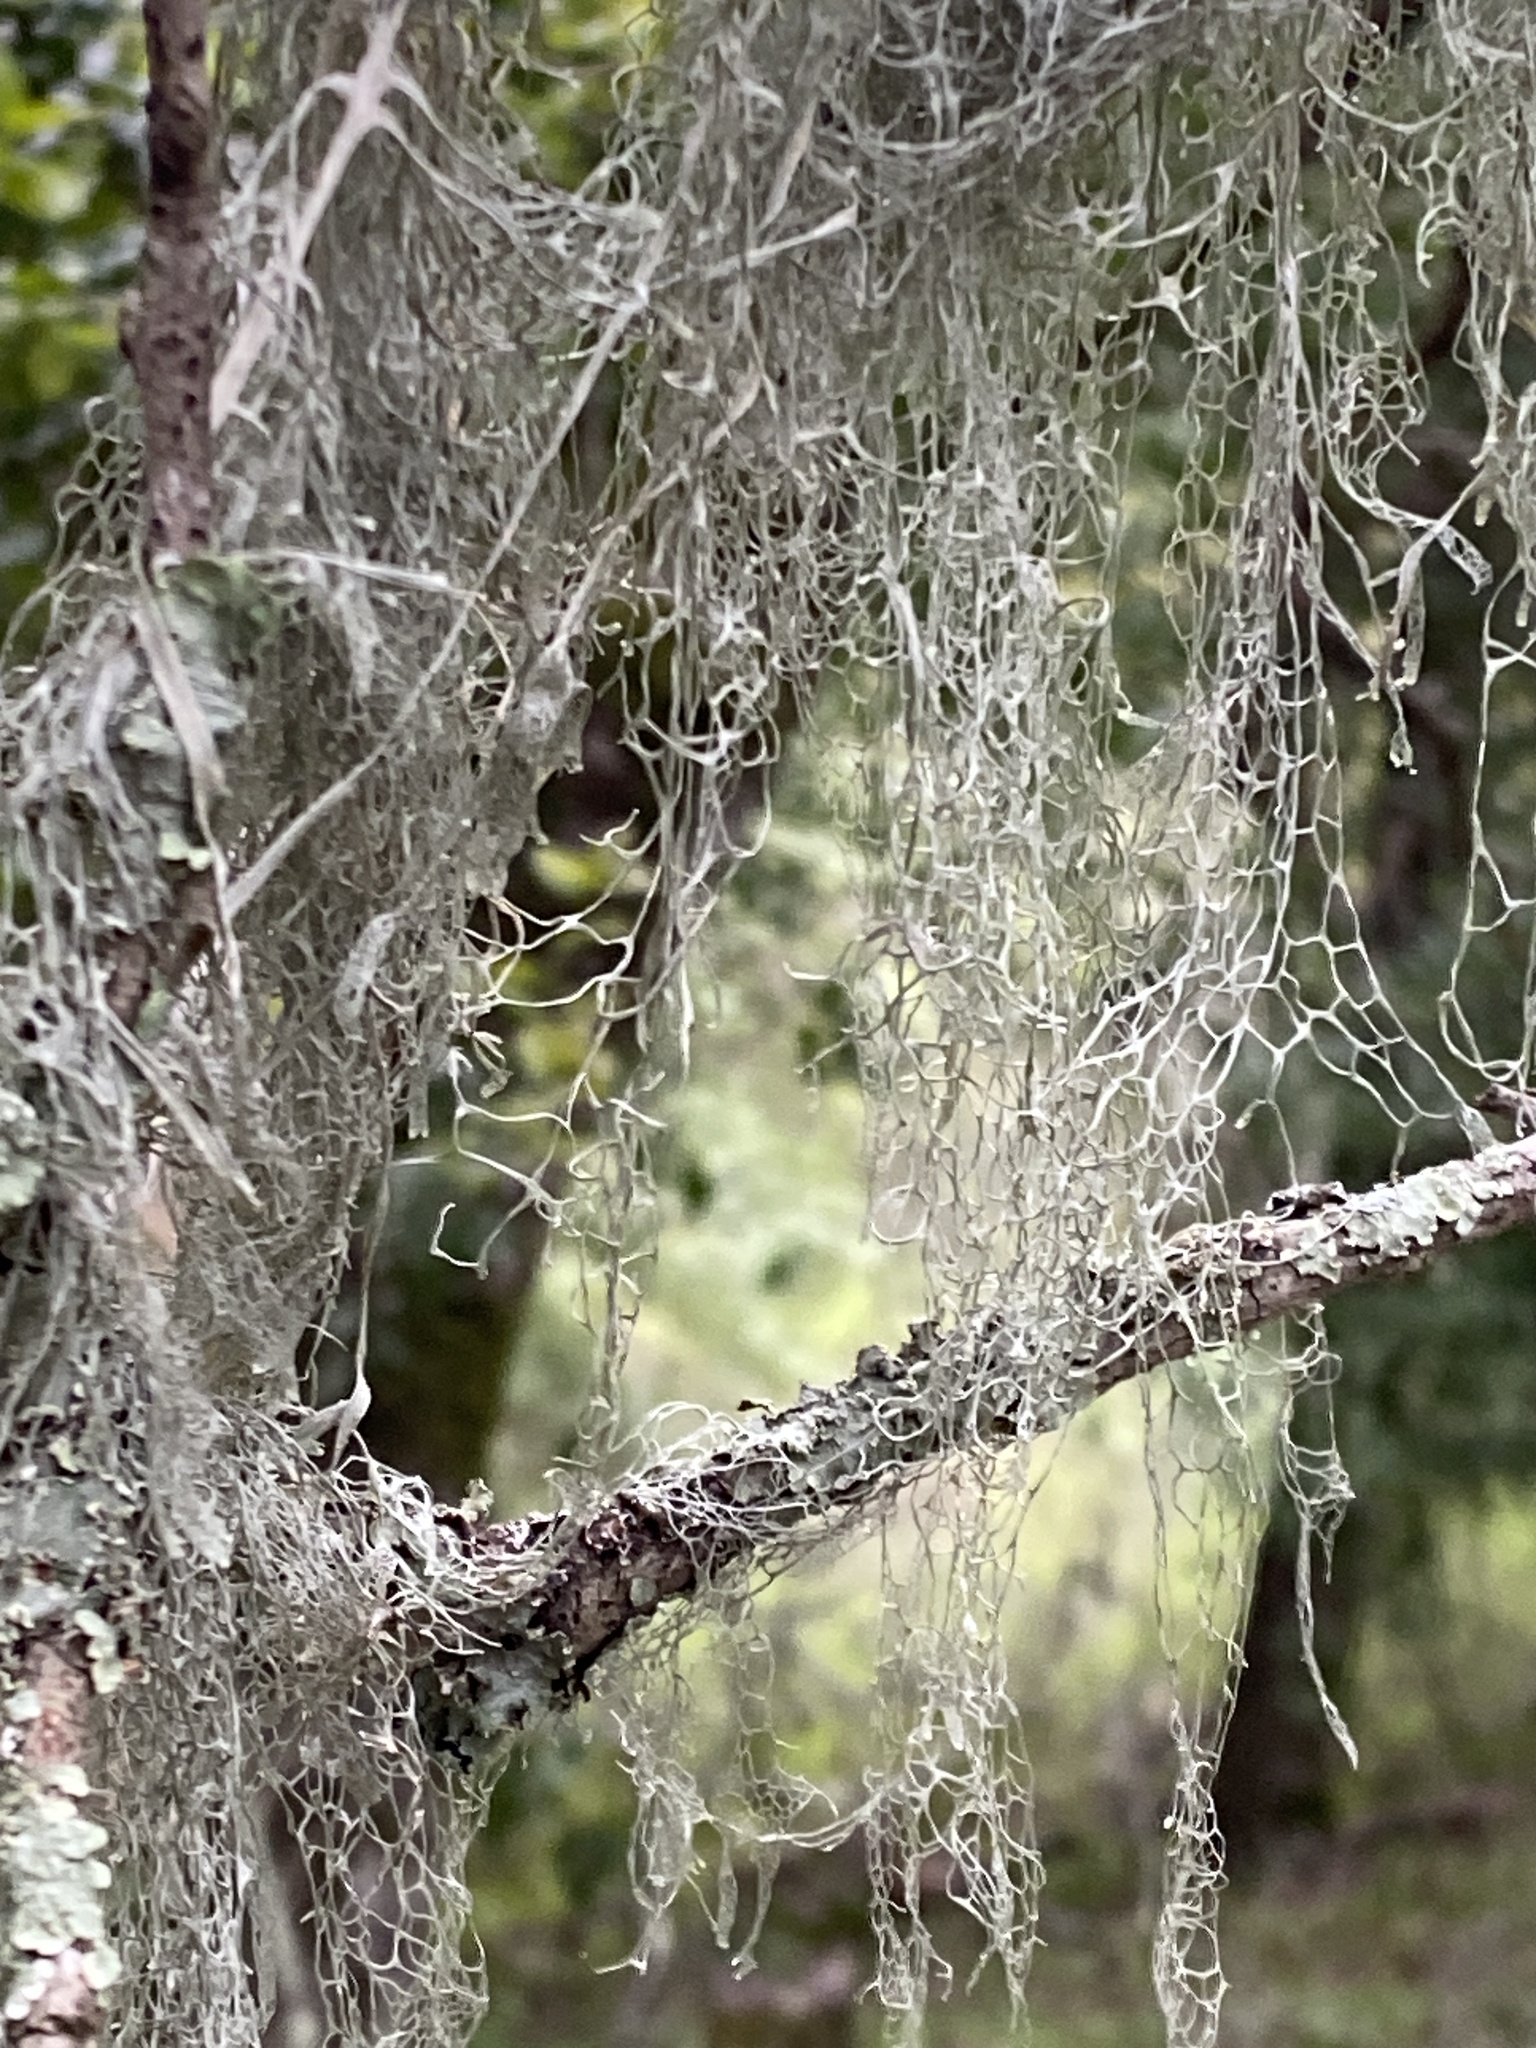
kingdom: Fungi
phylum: Ascomycota
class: Lecanoromycetes
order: Lecanorales
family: Ramalinaceae
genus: Ramalina
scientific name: Ramalina menziesii
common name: Lace lichen
